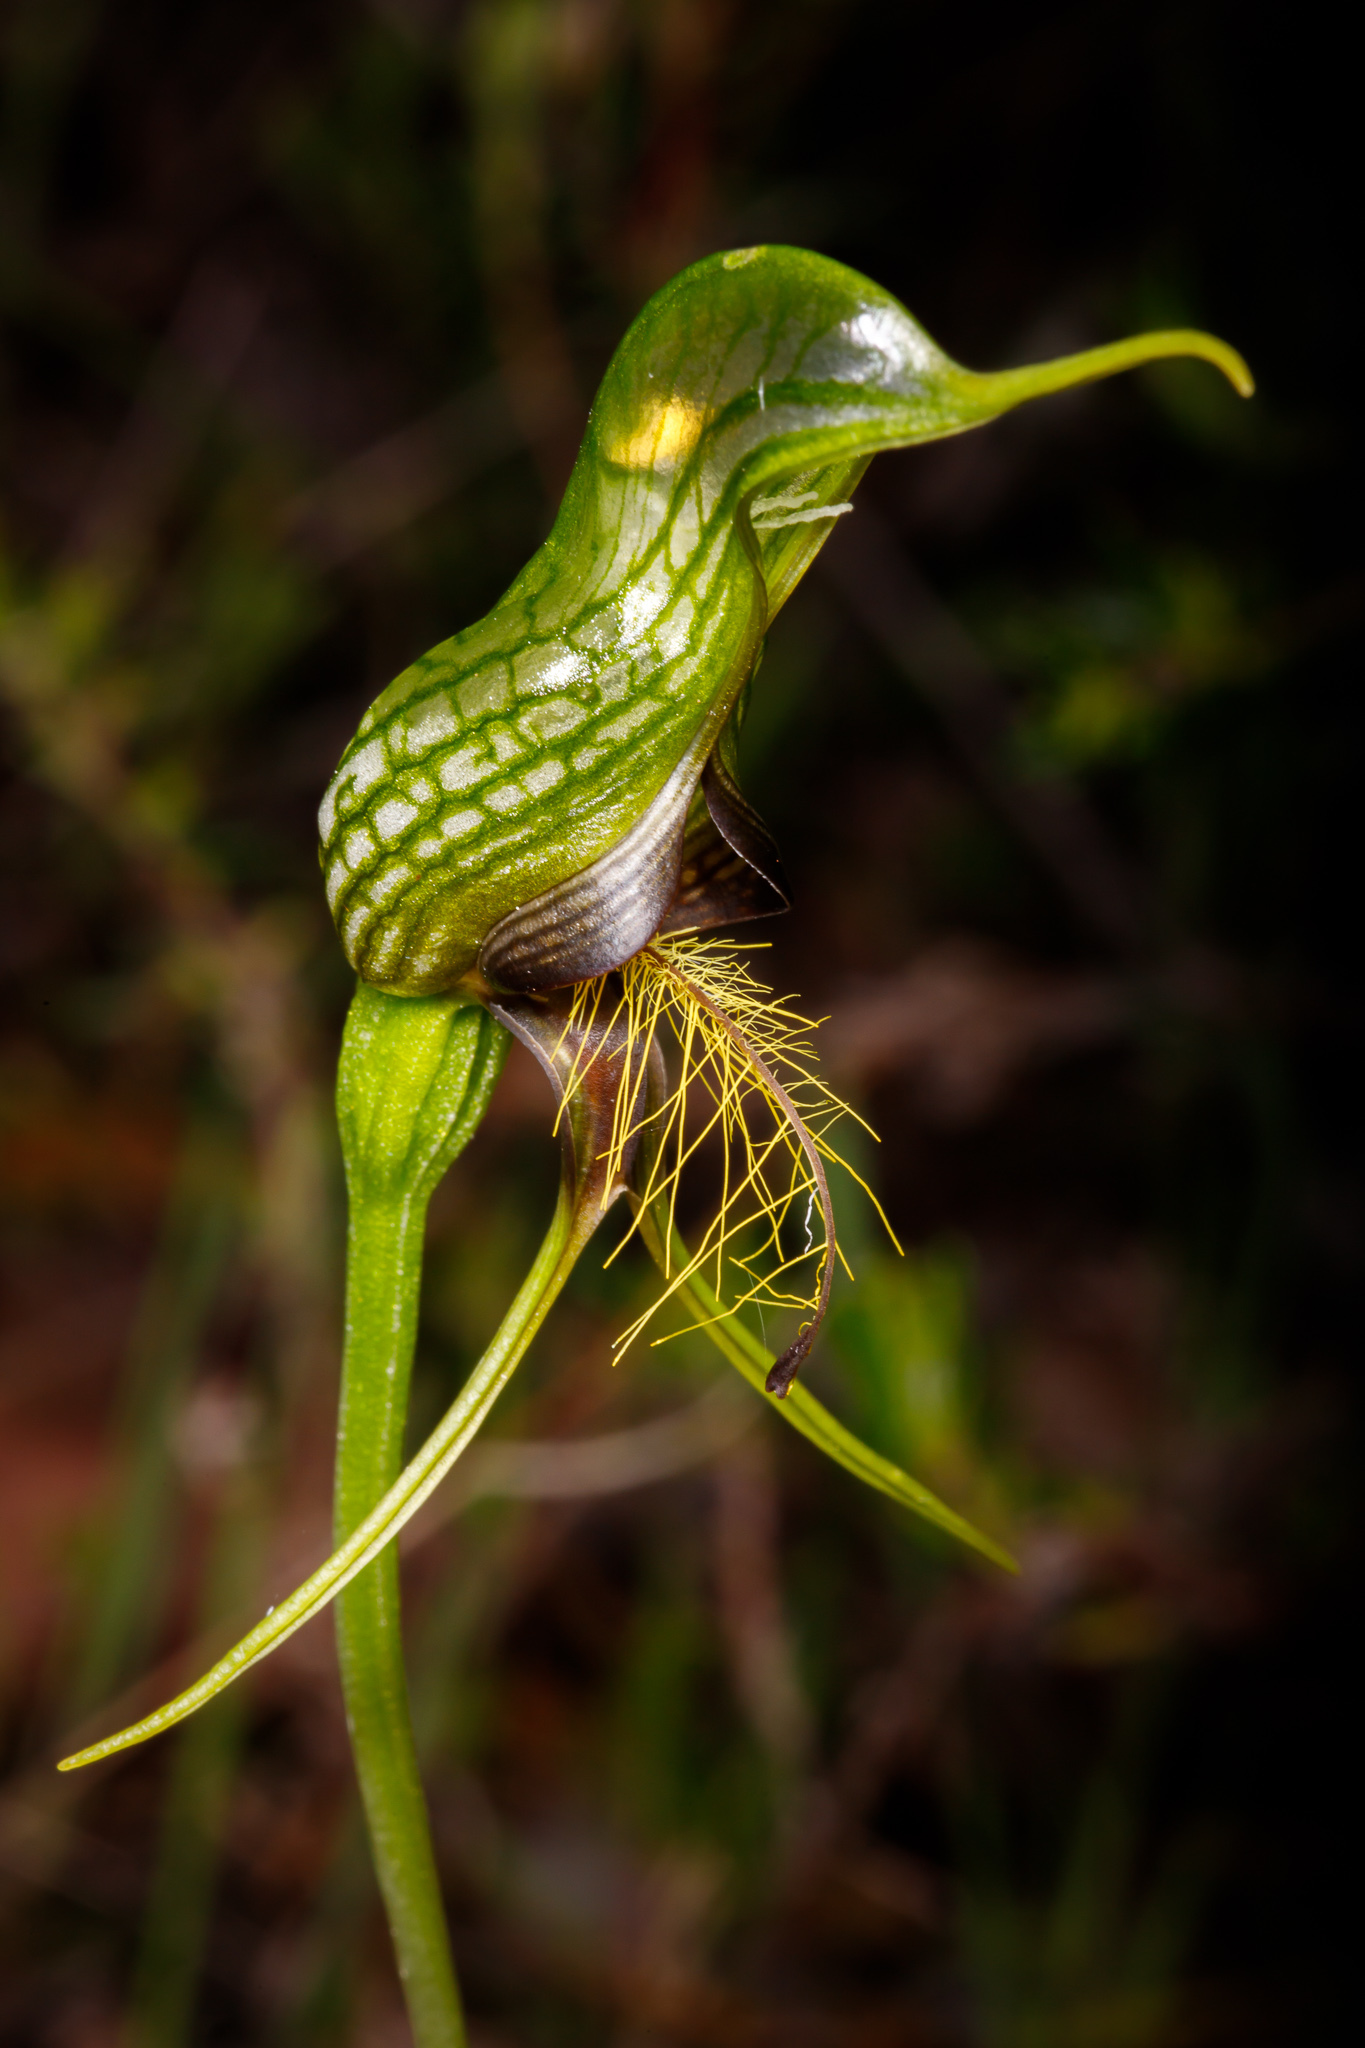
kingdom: Plantae
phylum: Tracheophyta
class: Liliopsida
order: Asparagales
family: Orchidaceae
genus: Pterostylis
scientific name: Pterostylis barbata
